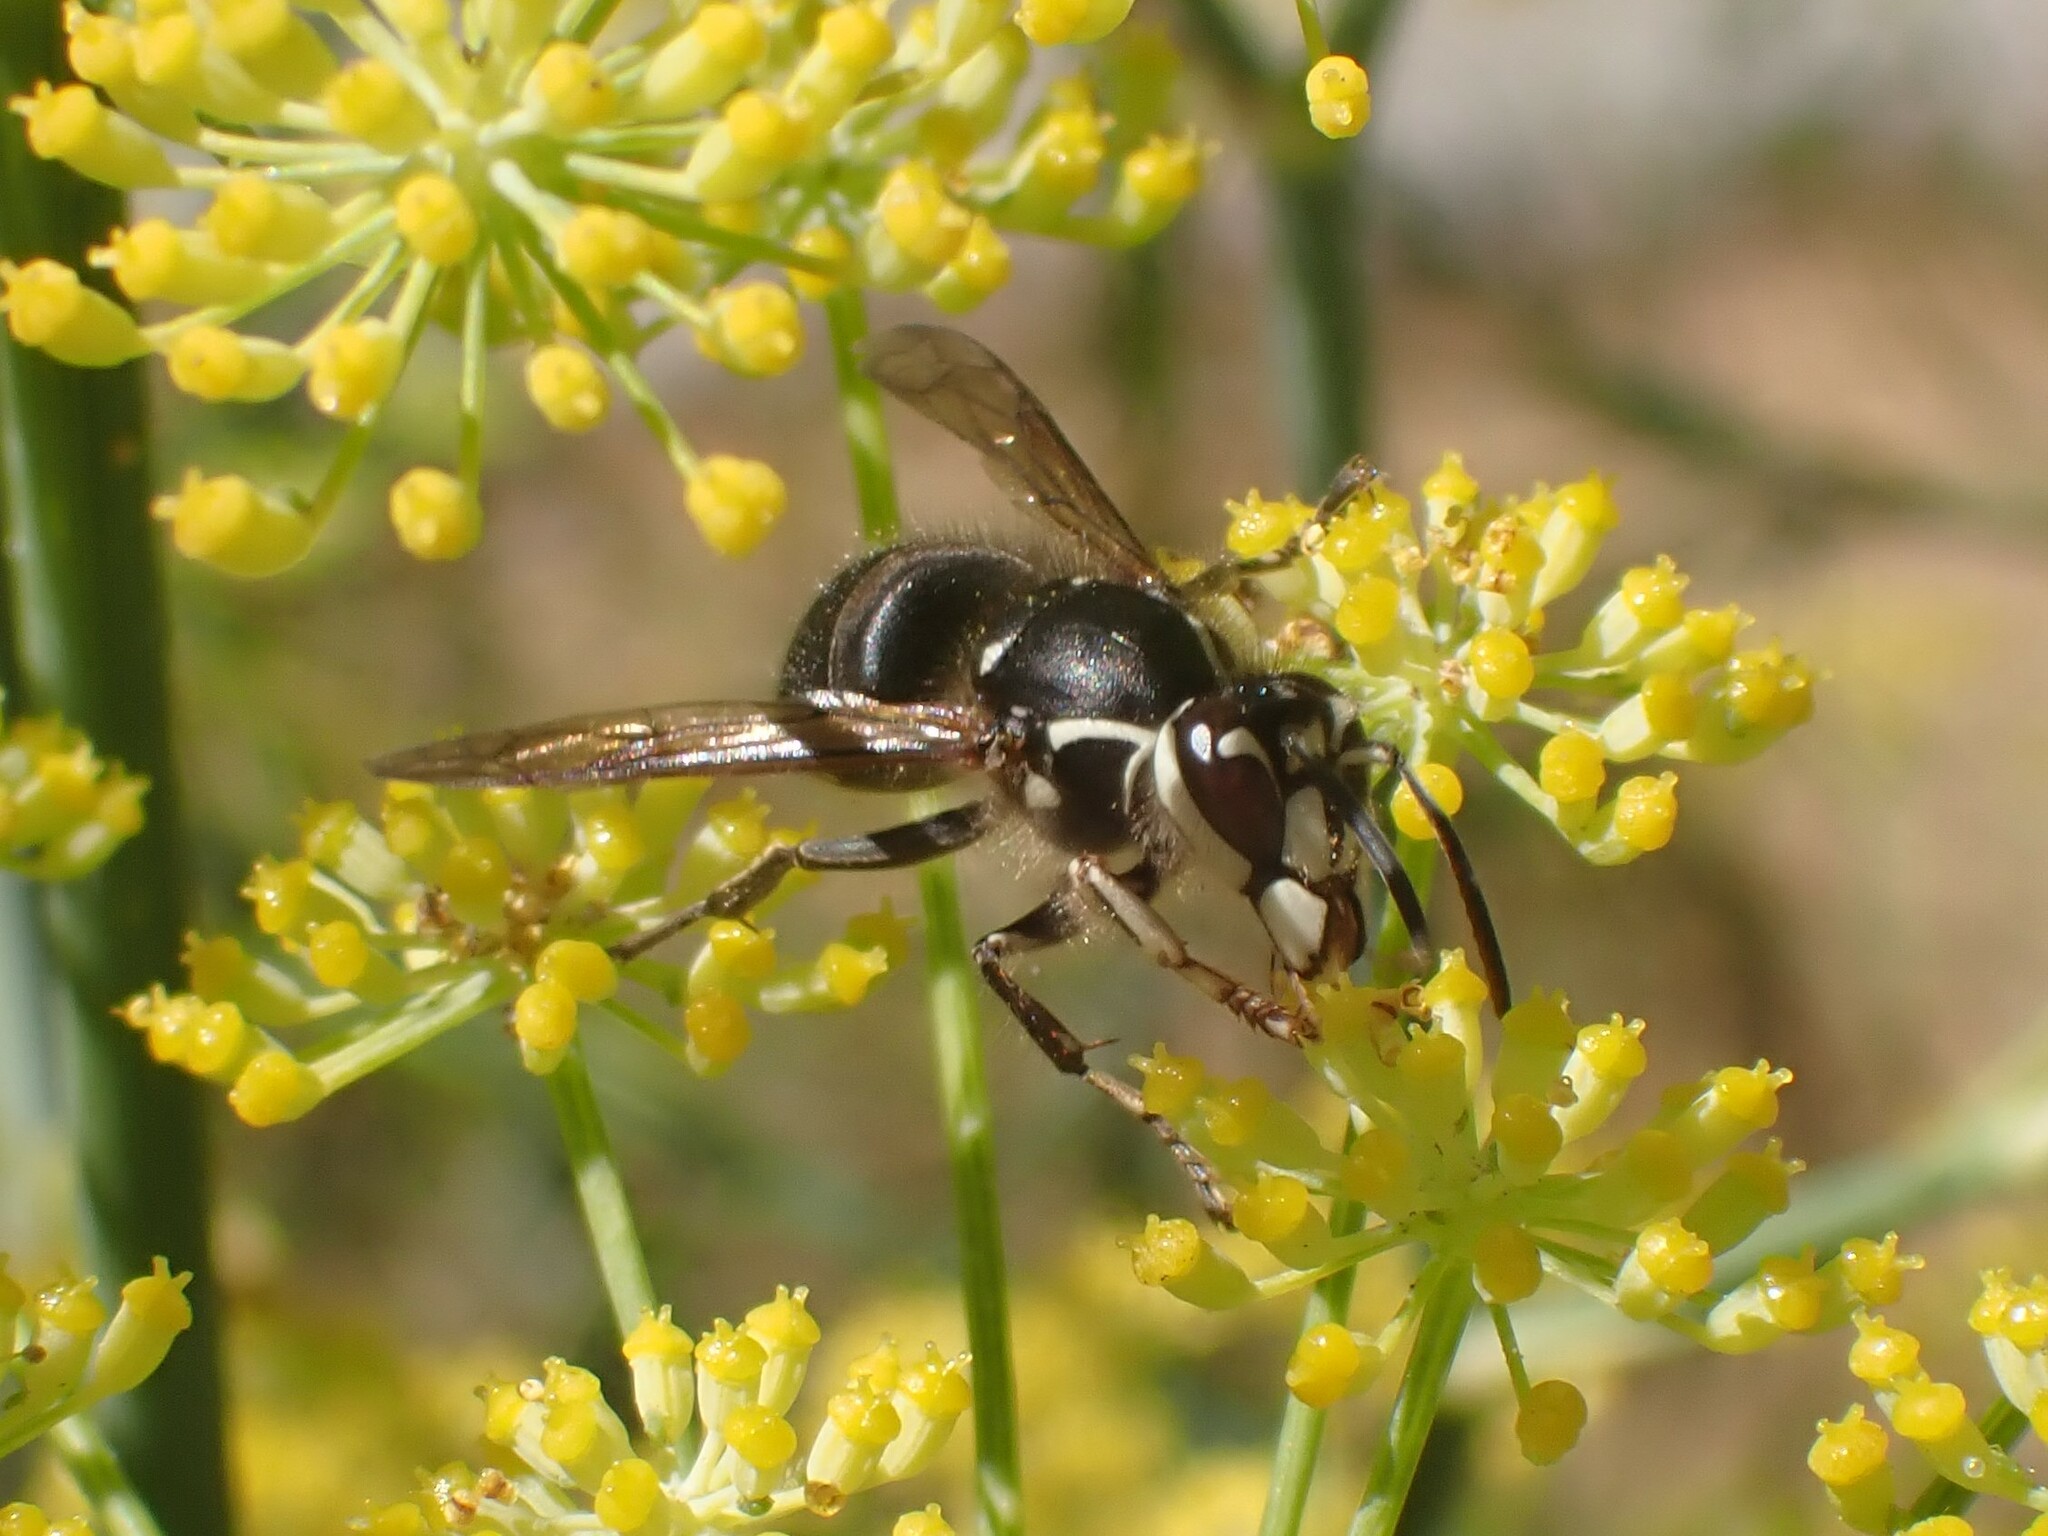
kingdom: Animalia
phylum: Arthropoda
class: Insecta
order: Hymenoptera
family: Vespidae
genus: Dolichovespula
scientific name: Dolichovespula maculata
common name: Bald-faced hornet
